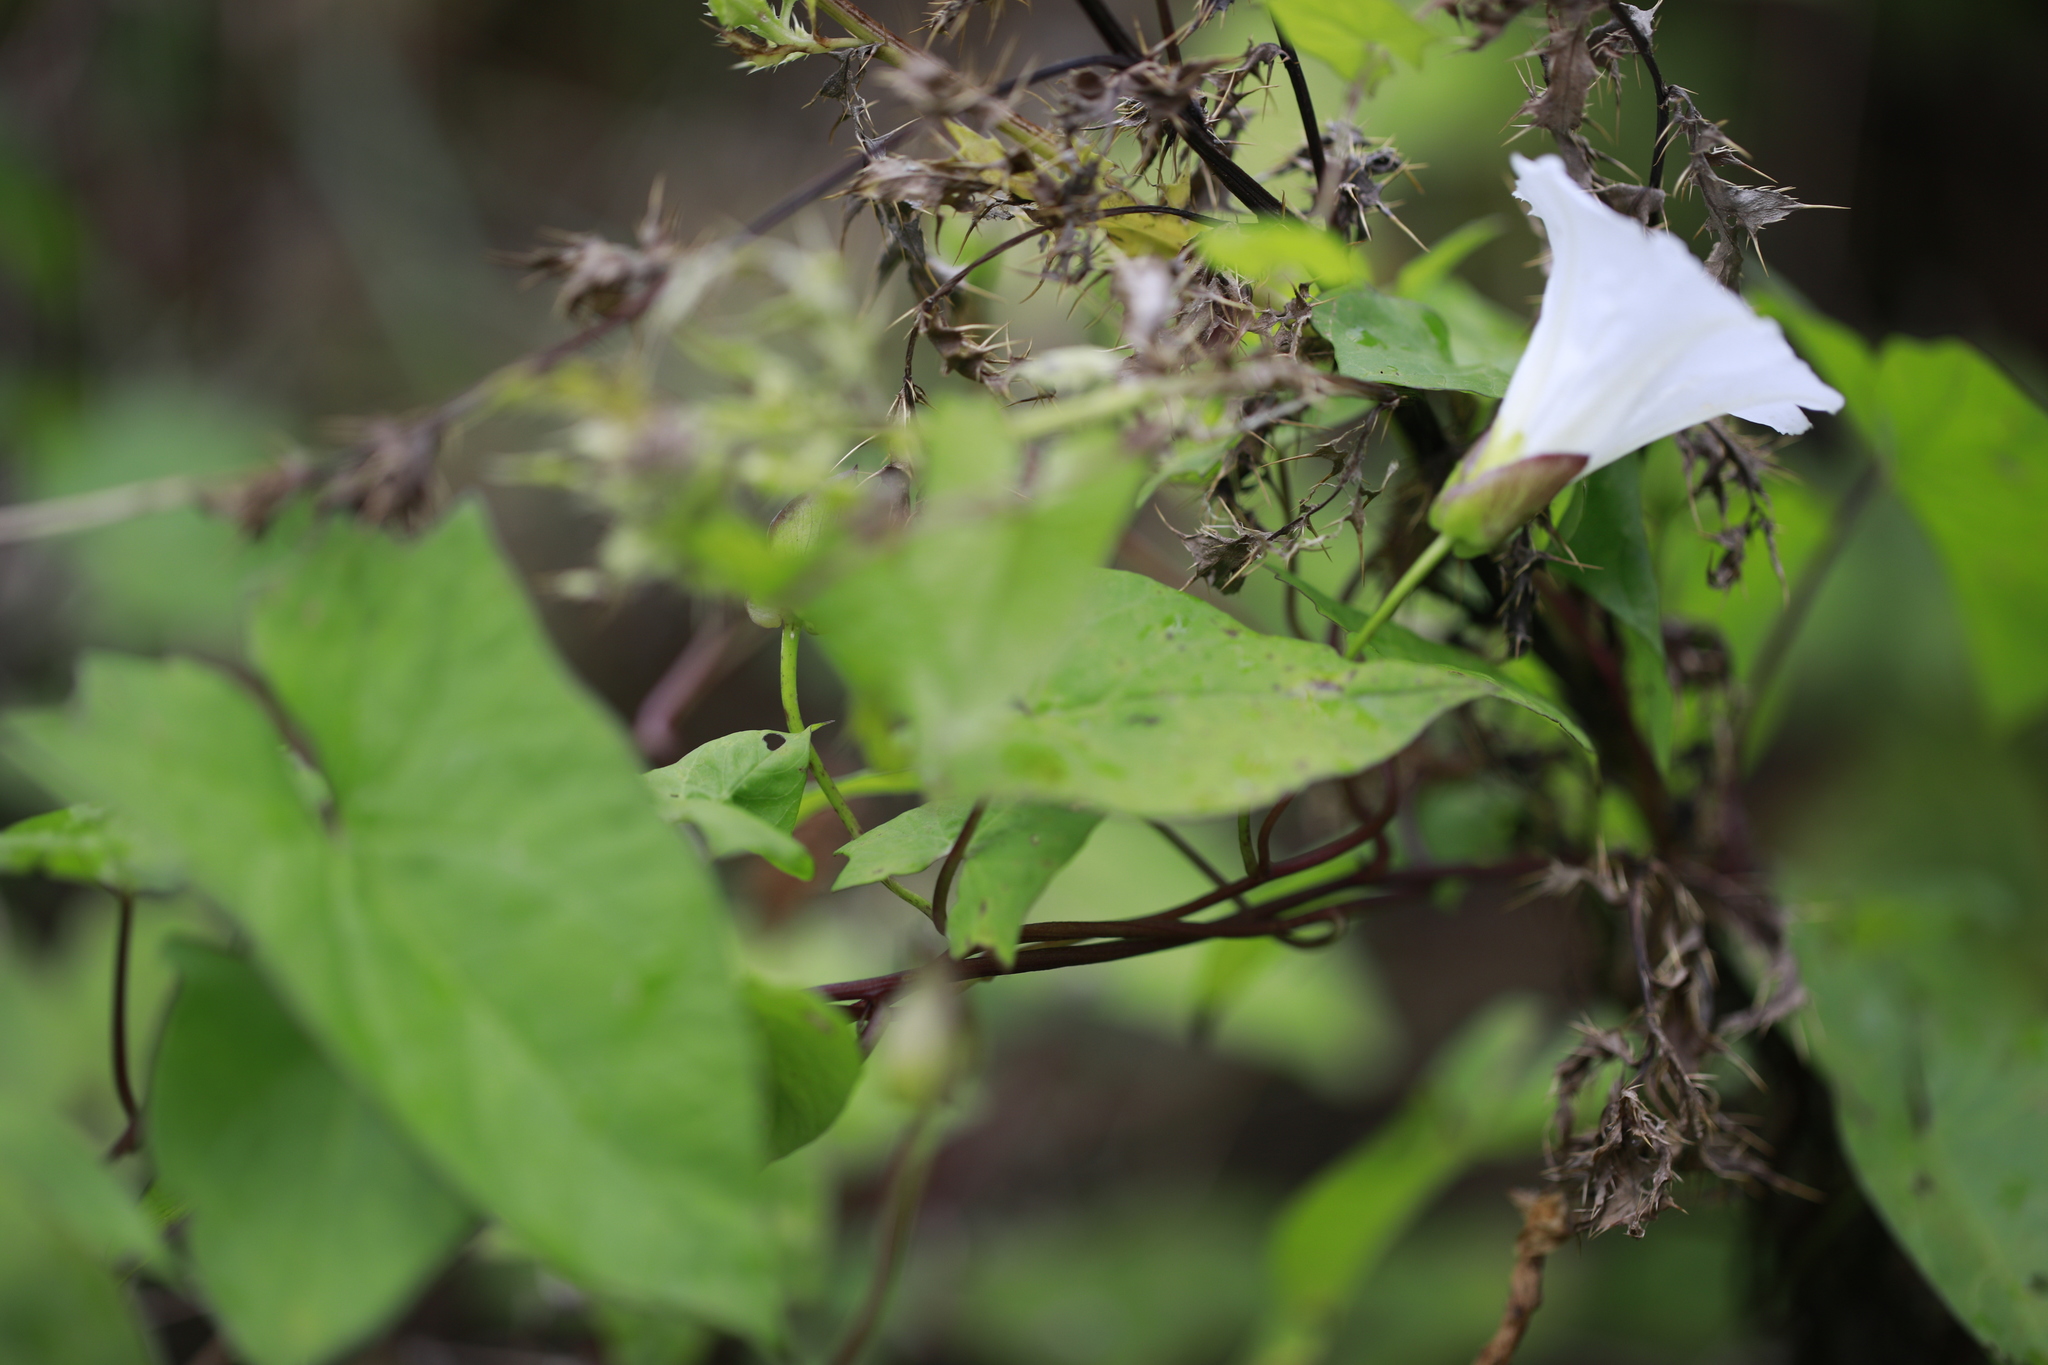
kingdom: Plantae
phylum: Tracheophyta
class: Magnoliopsida
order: Solanales
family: Convolvulaceae
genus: Calystegia
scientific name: Calystegia sepium
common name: Hedge bindweed
